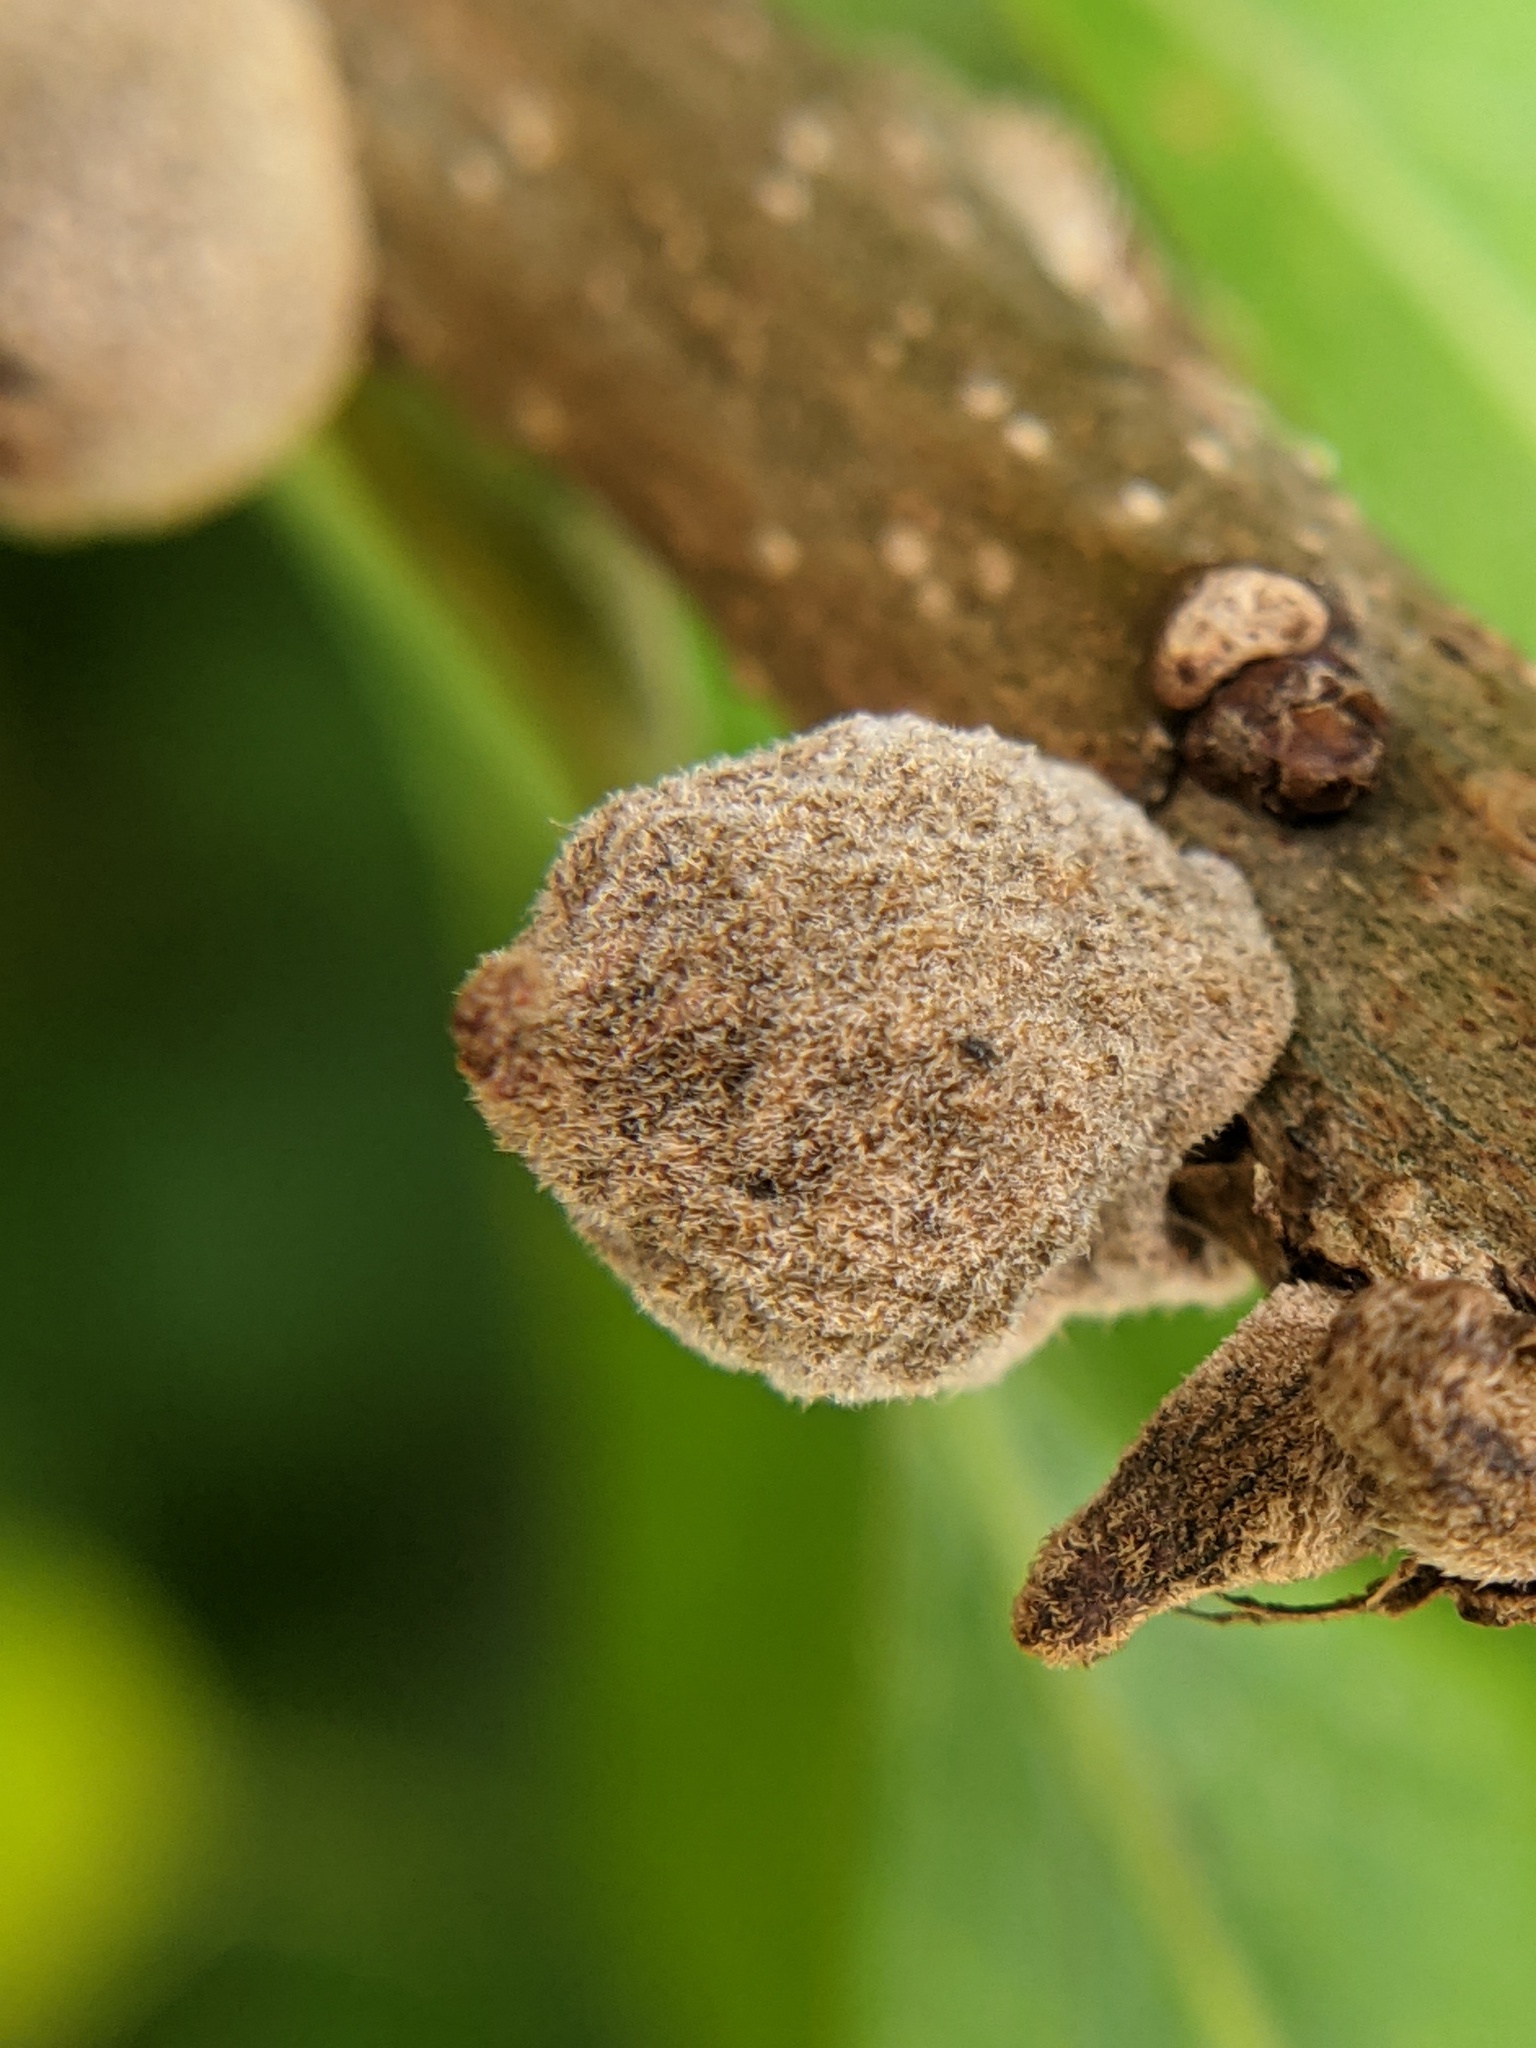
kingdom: Animalia
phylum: Arthropoda
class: Insecta
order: Hymenoptera
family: Cynipidae
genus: Disholcaspis
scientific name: Disholcaspis
